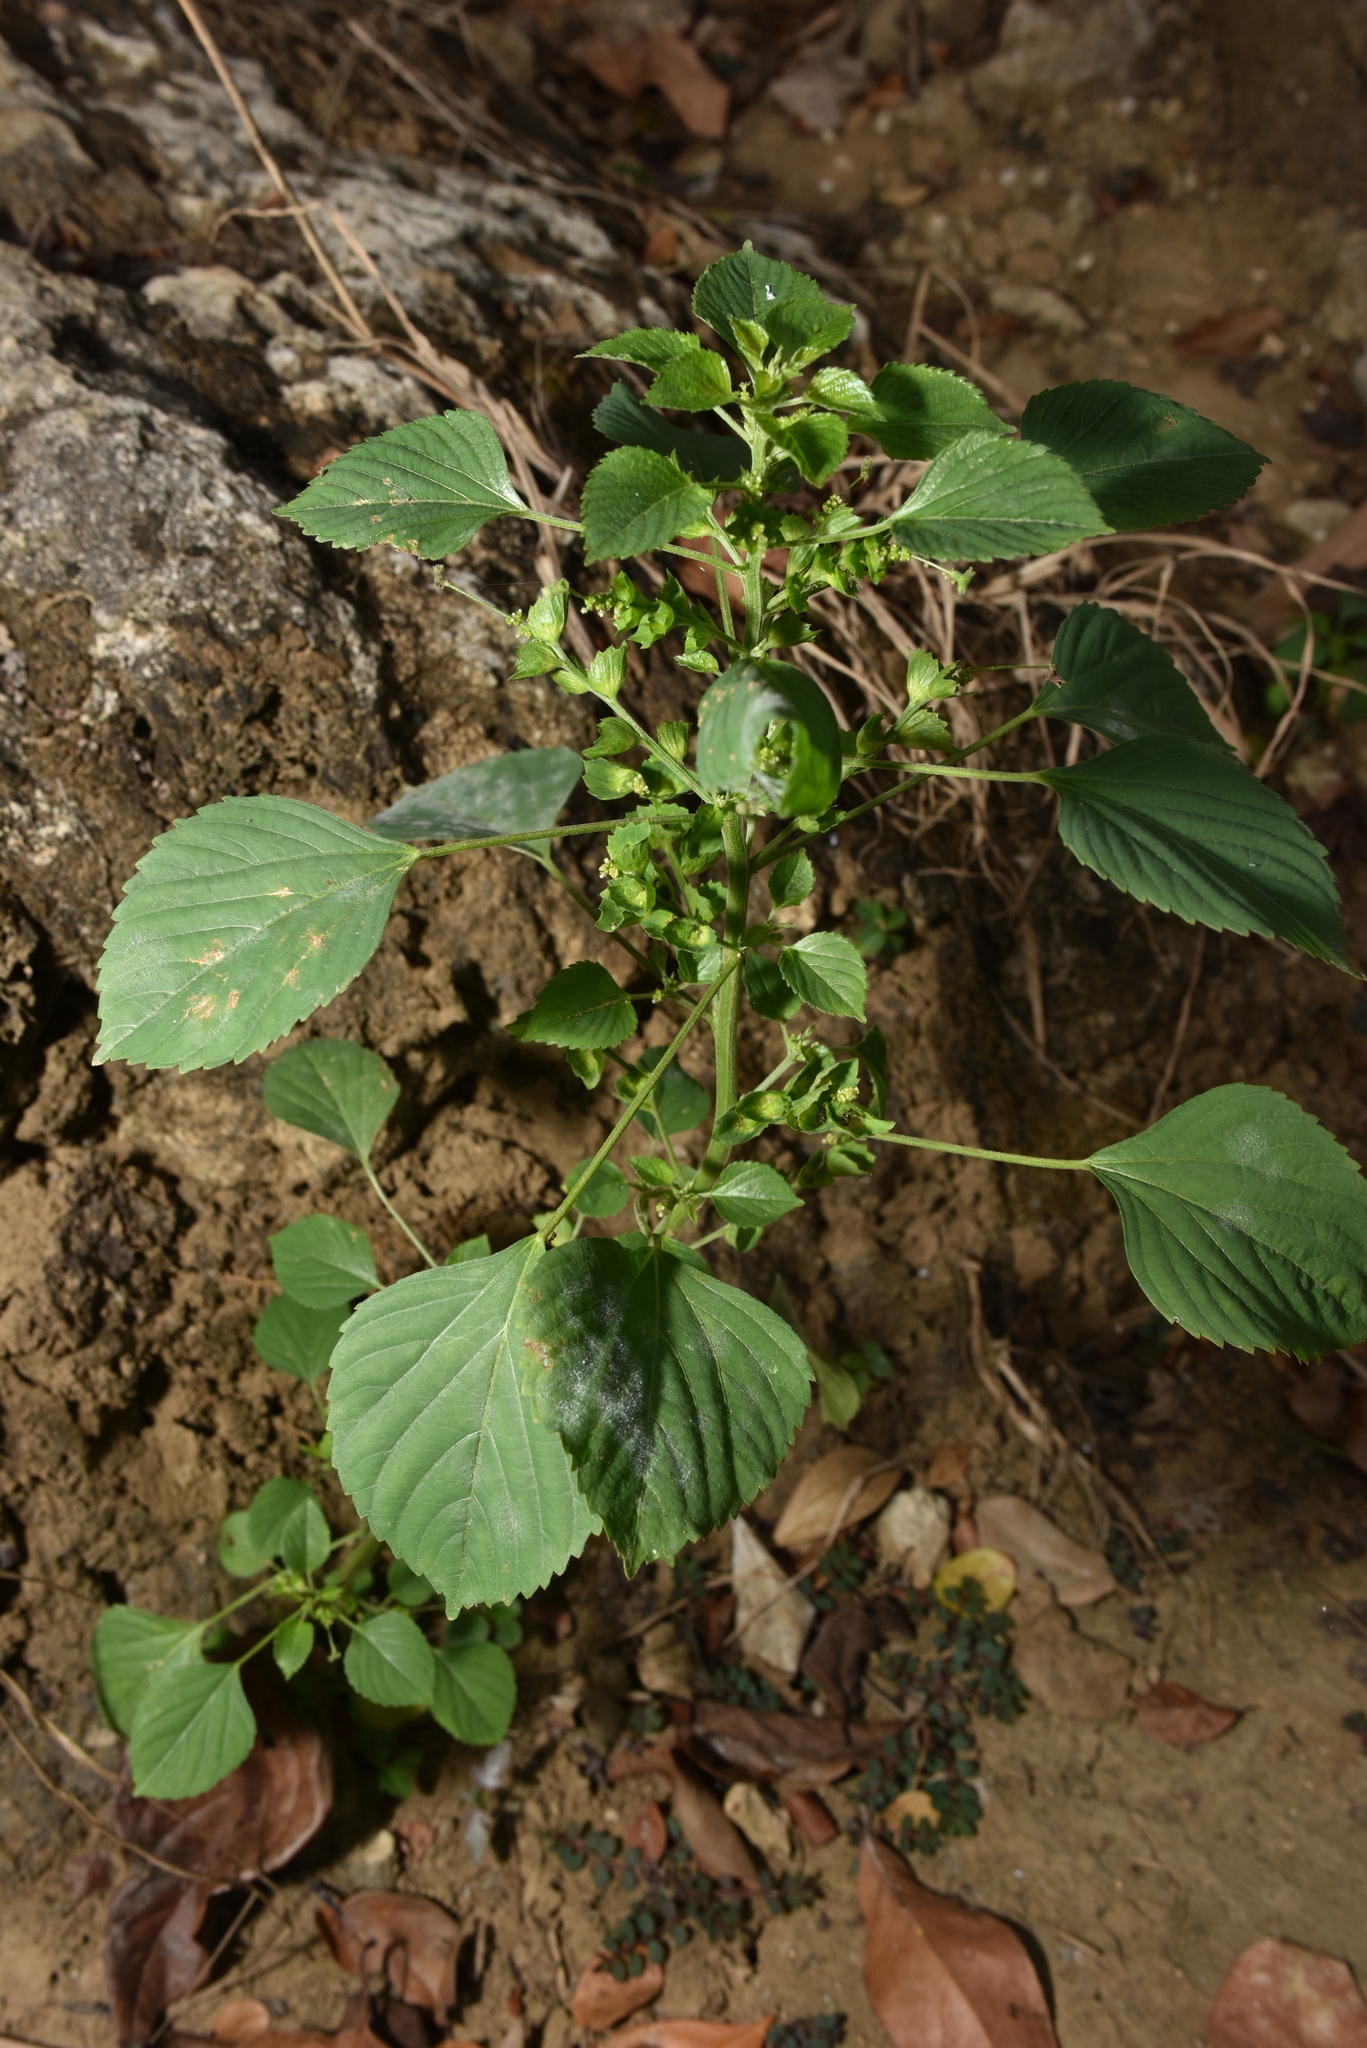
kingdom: Plantae
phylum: Tracheophyta
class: Magnoliopsida
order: Malpighiales
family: Euphorbiaceae
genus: Acalypha
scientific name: Acalypha indica
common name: Indian acalypha
